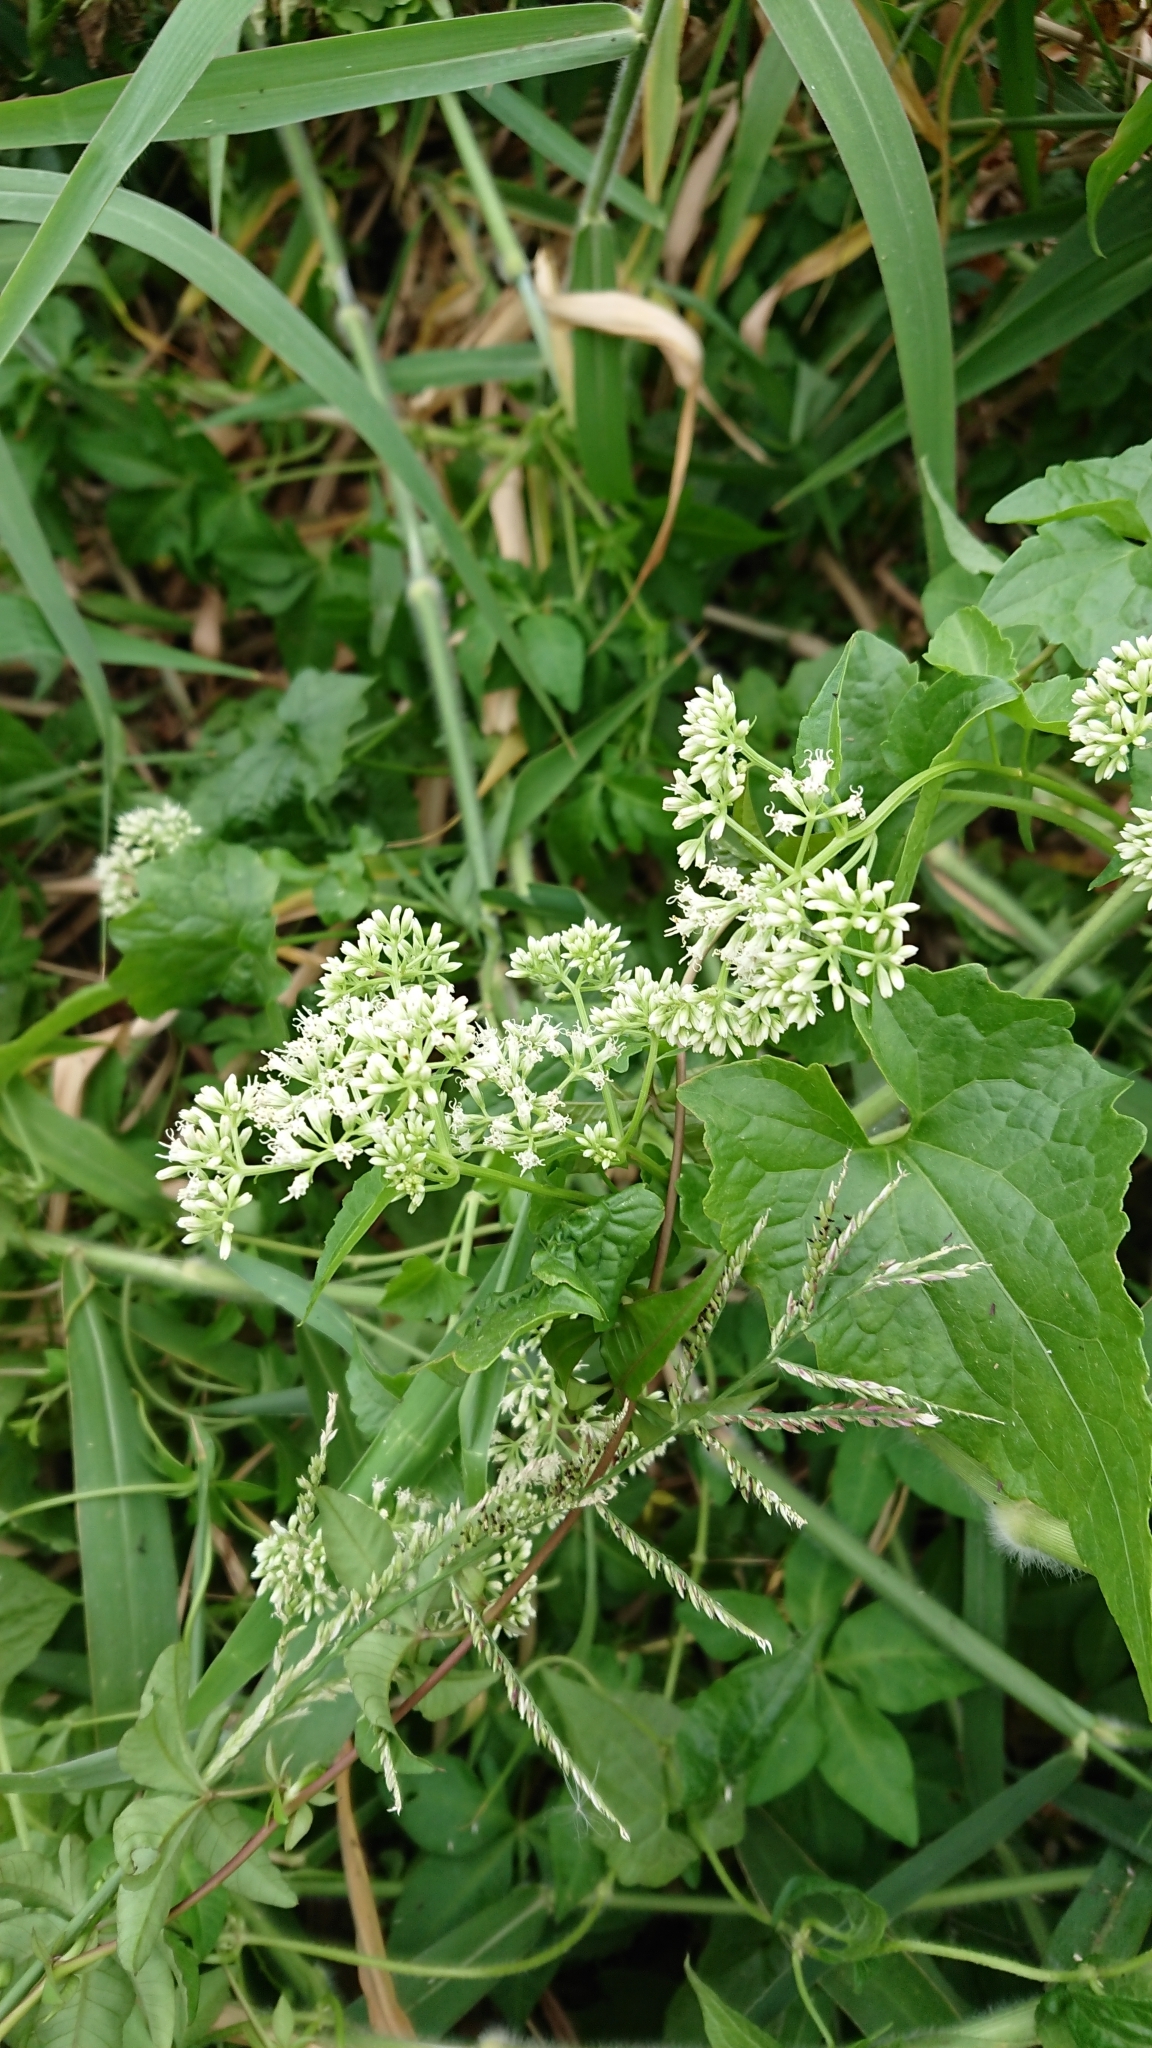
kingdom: Plantae
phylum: Tracheophyta
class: Magnoliopsida
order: Asterales
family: Asteraceae
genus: Mikania
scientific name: Mikania micrantha
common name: Mile-a-minute
